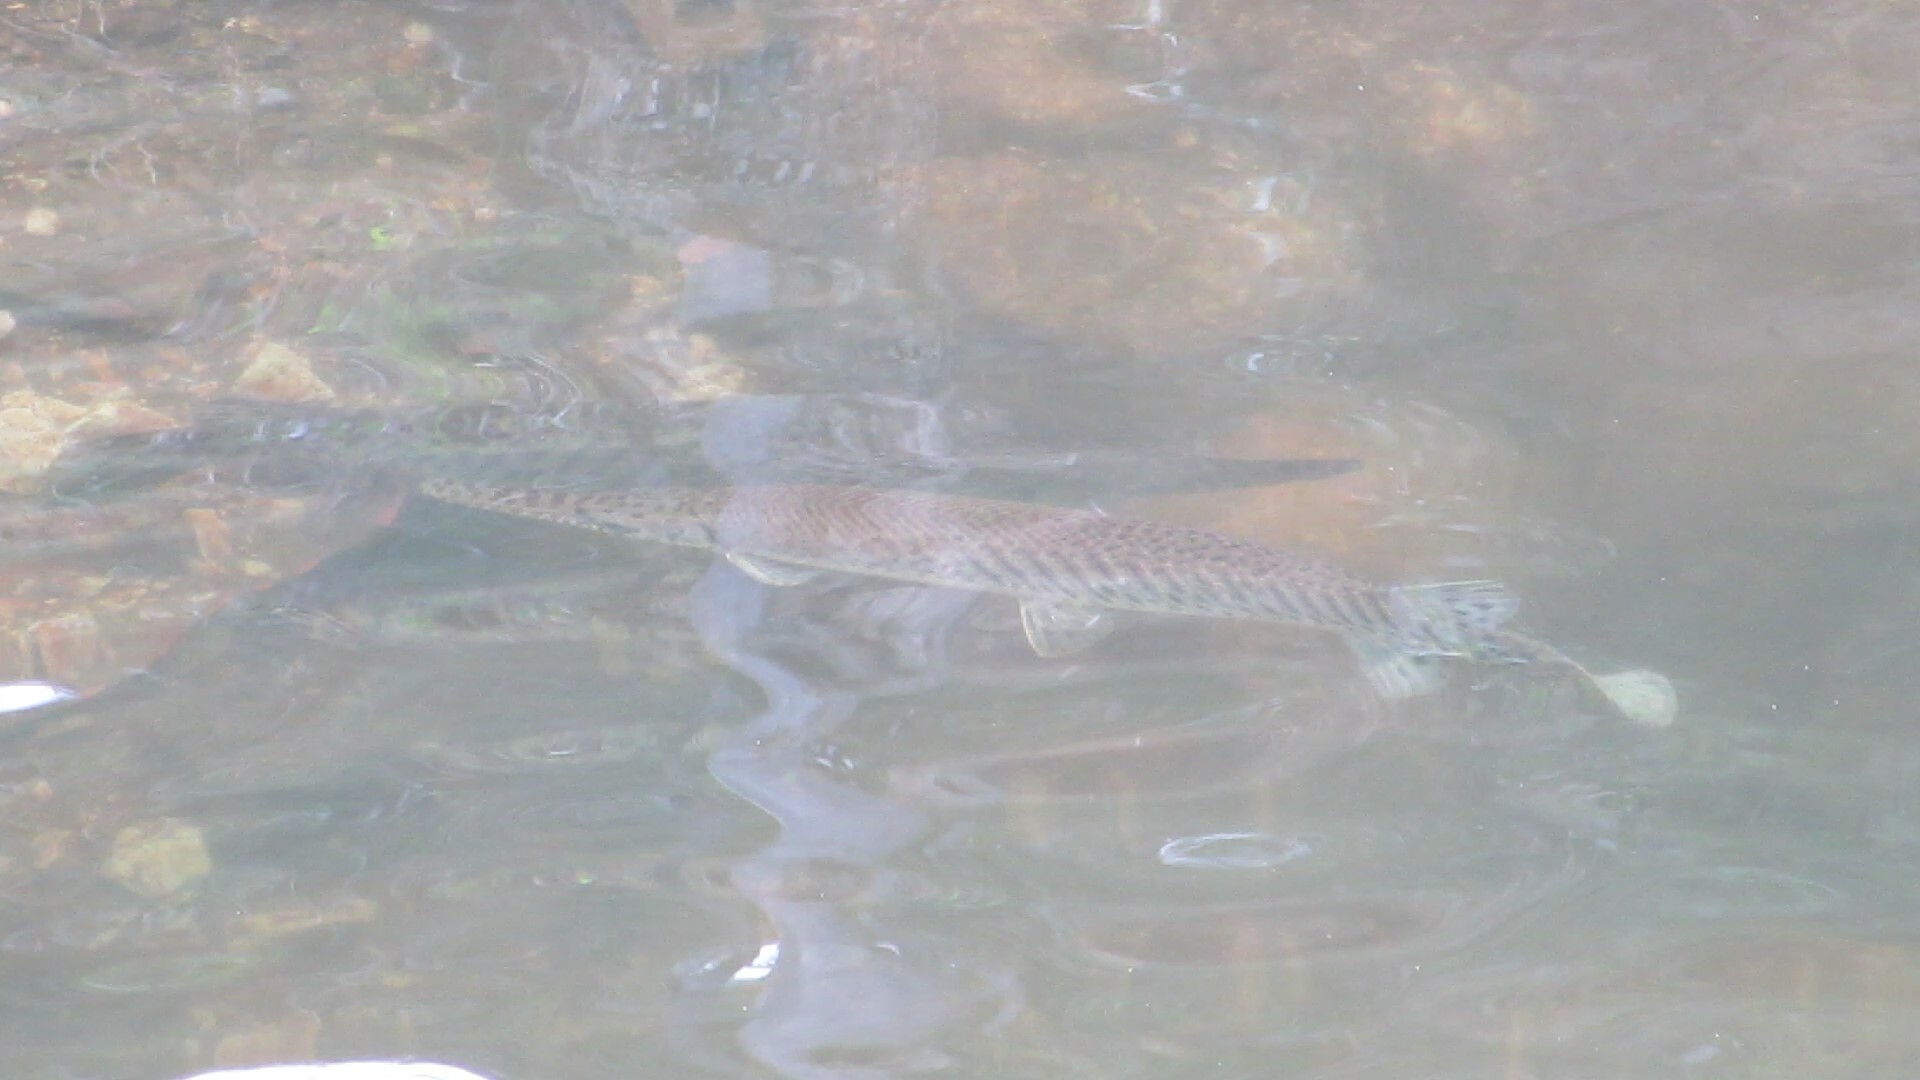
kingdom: Animalia
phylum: Chordata
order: Lepisosteiformes
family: Lepisosteidae
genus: Lepisosteus
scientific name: Lepisosteus platyrhincus
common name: Florida gar
